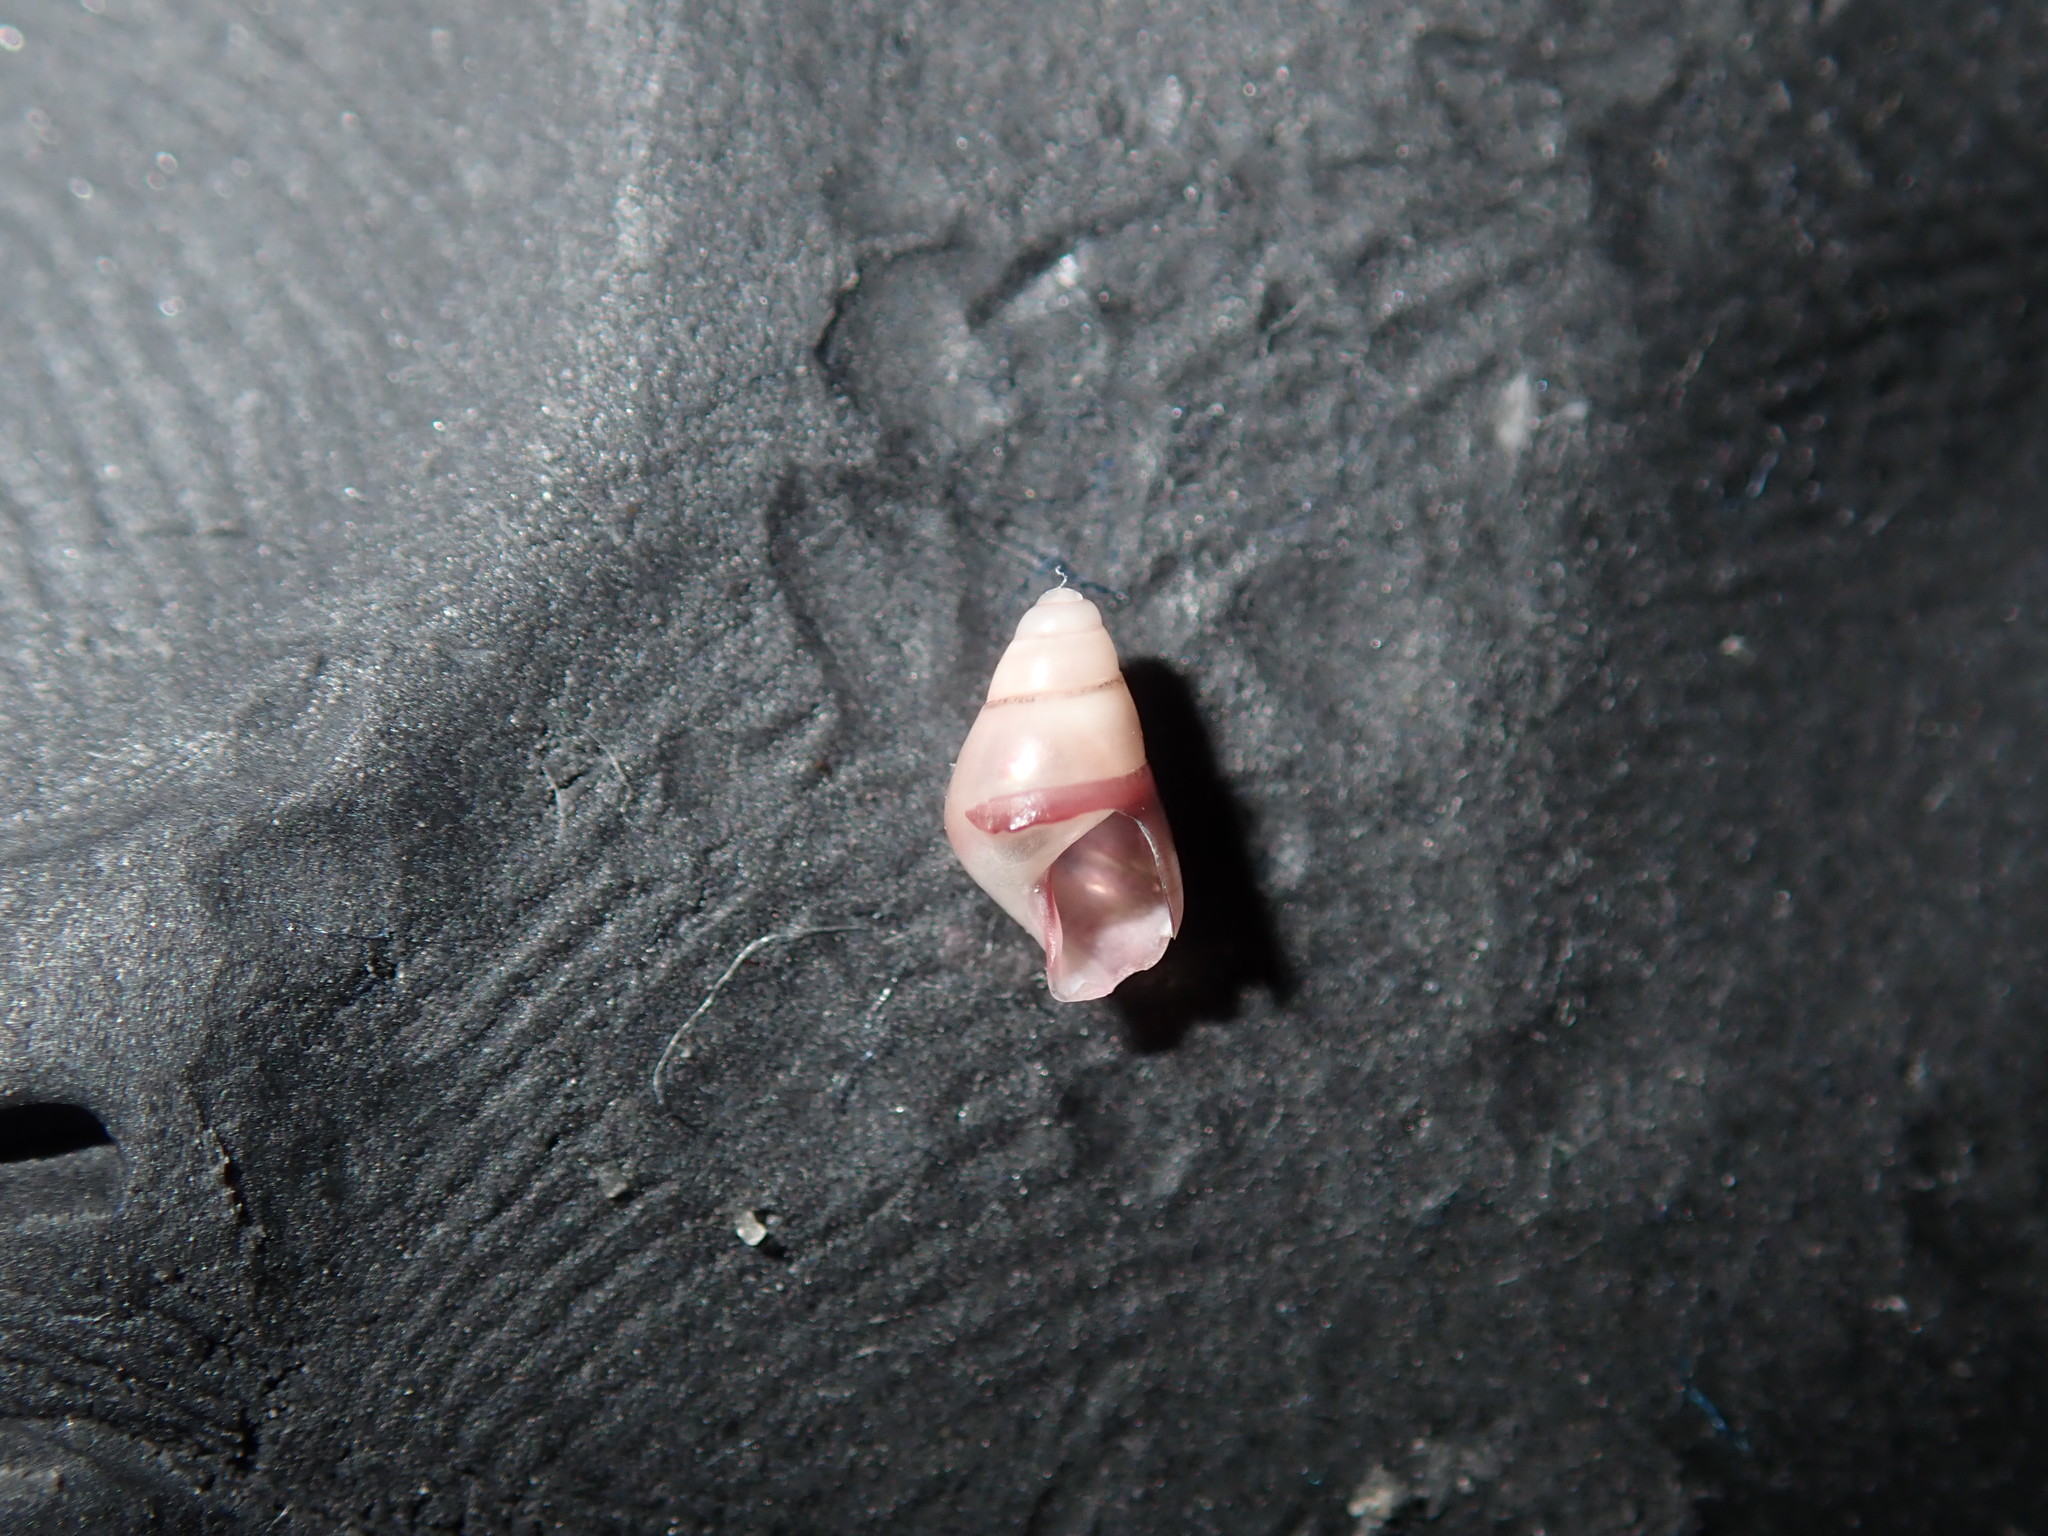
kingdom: Animalia
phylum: Mollusca
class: Gastropoda
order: Trochida
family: Trochidae
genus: Bankivia
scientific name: Bankivia fasciata
